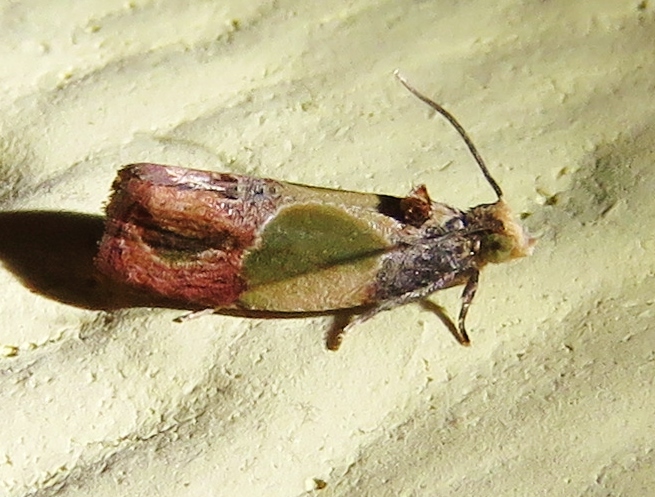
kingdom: Animalia
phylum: Arthropoda
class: Insecta
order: Lepidoptera
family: Tortricidae
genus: Eumarozia
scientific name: Eumarozia malachitana
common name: Sculptured moth
